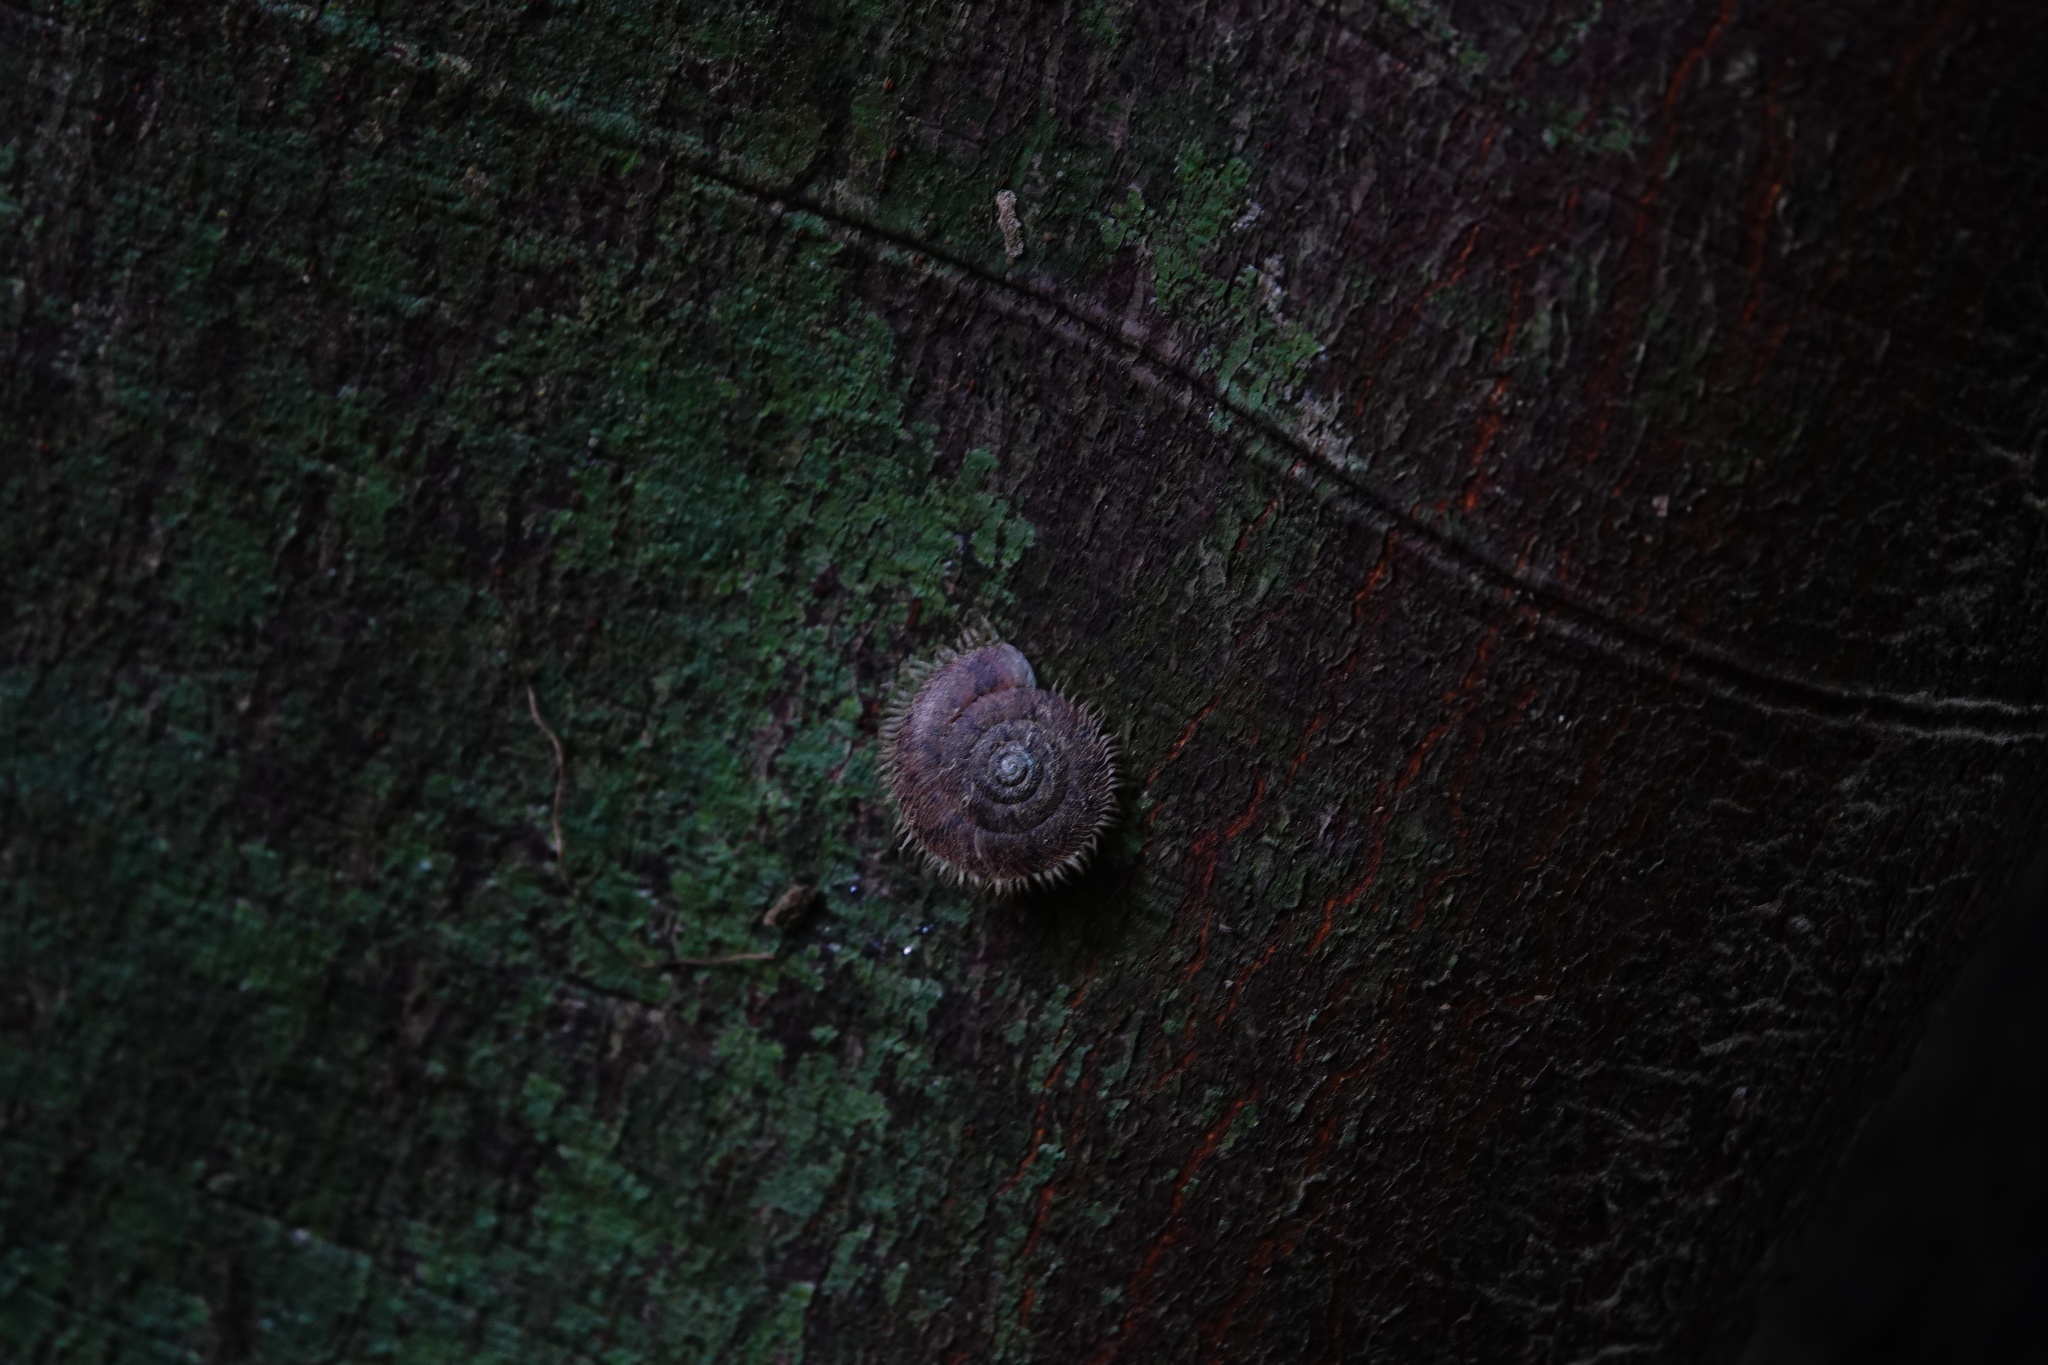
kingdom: Animalia
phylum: Mollusca
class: Gastropoda
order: Stylommatophora
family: Camaenidae
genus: Plectotropis
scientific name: Plectotropis mackensii
